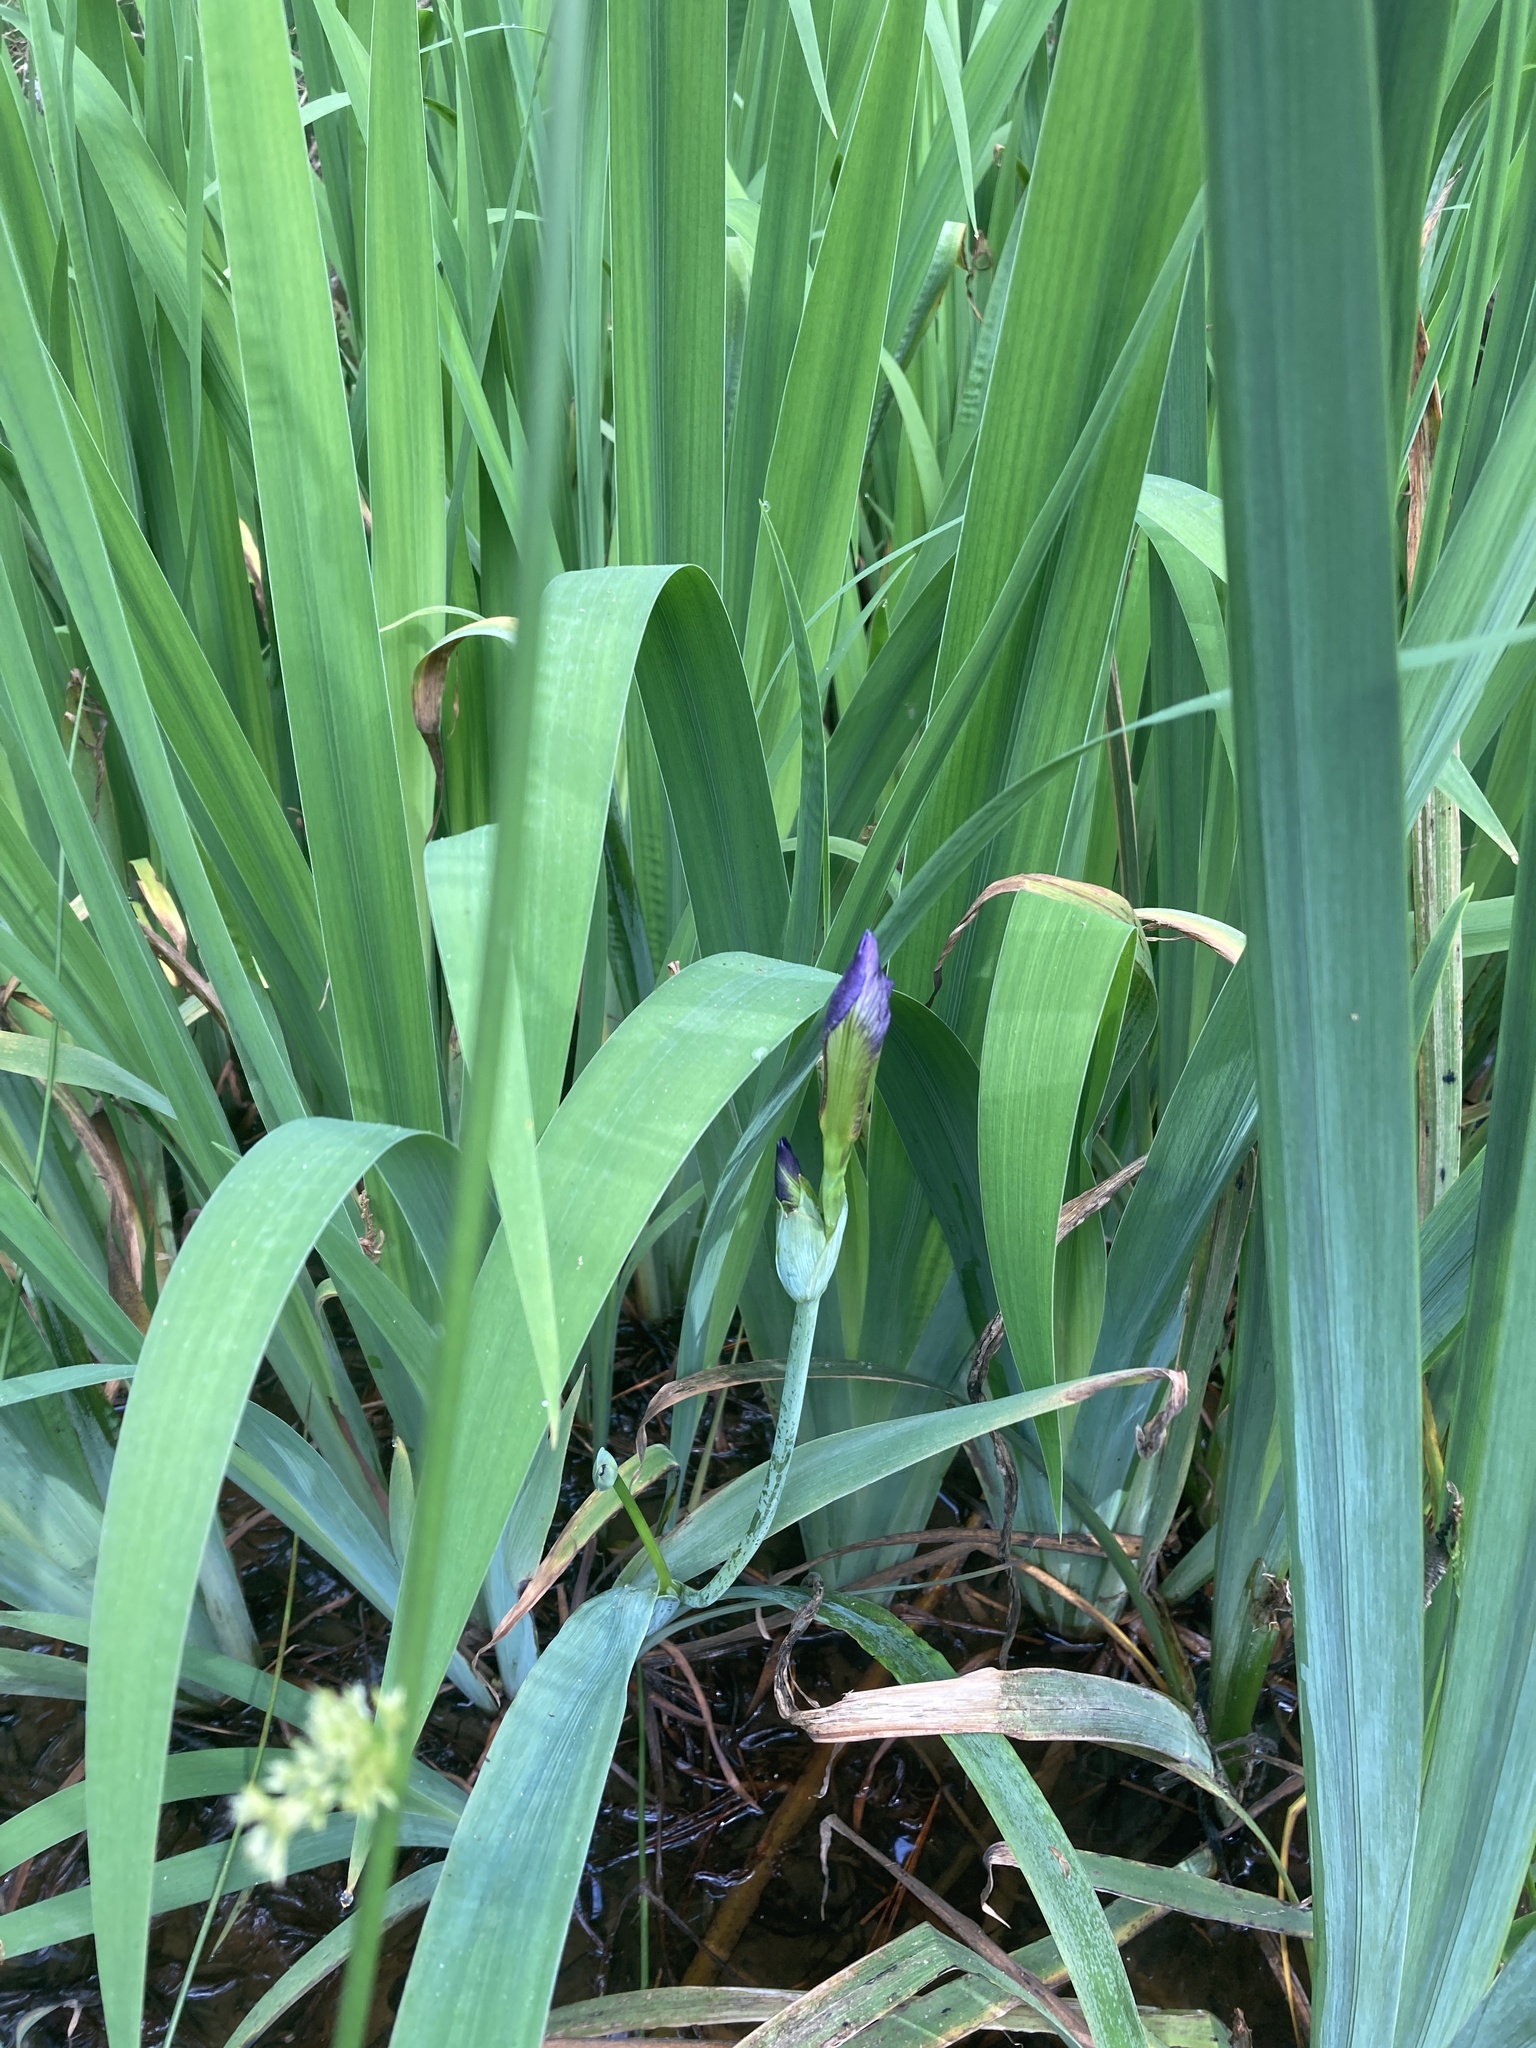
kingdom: Plantae
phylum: Tracheophyta
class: Liliopsida
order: Asparagales
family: Iridaceae
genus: Iris
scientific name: Iris virginica
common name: Southern blue flag
